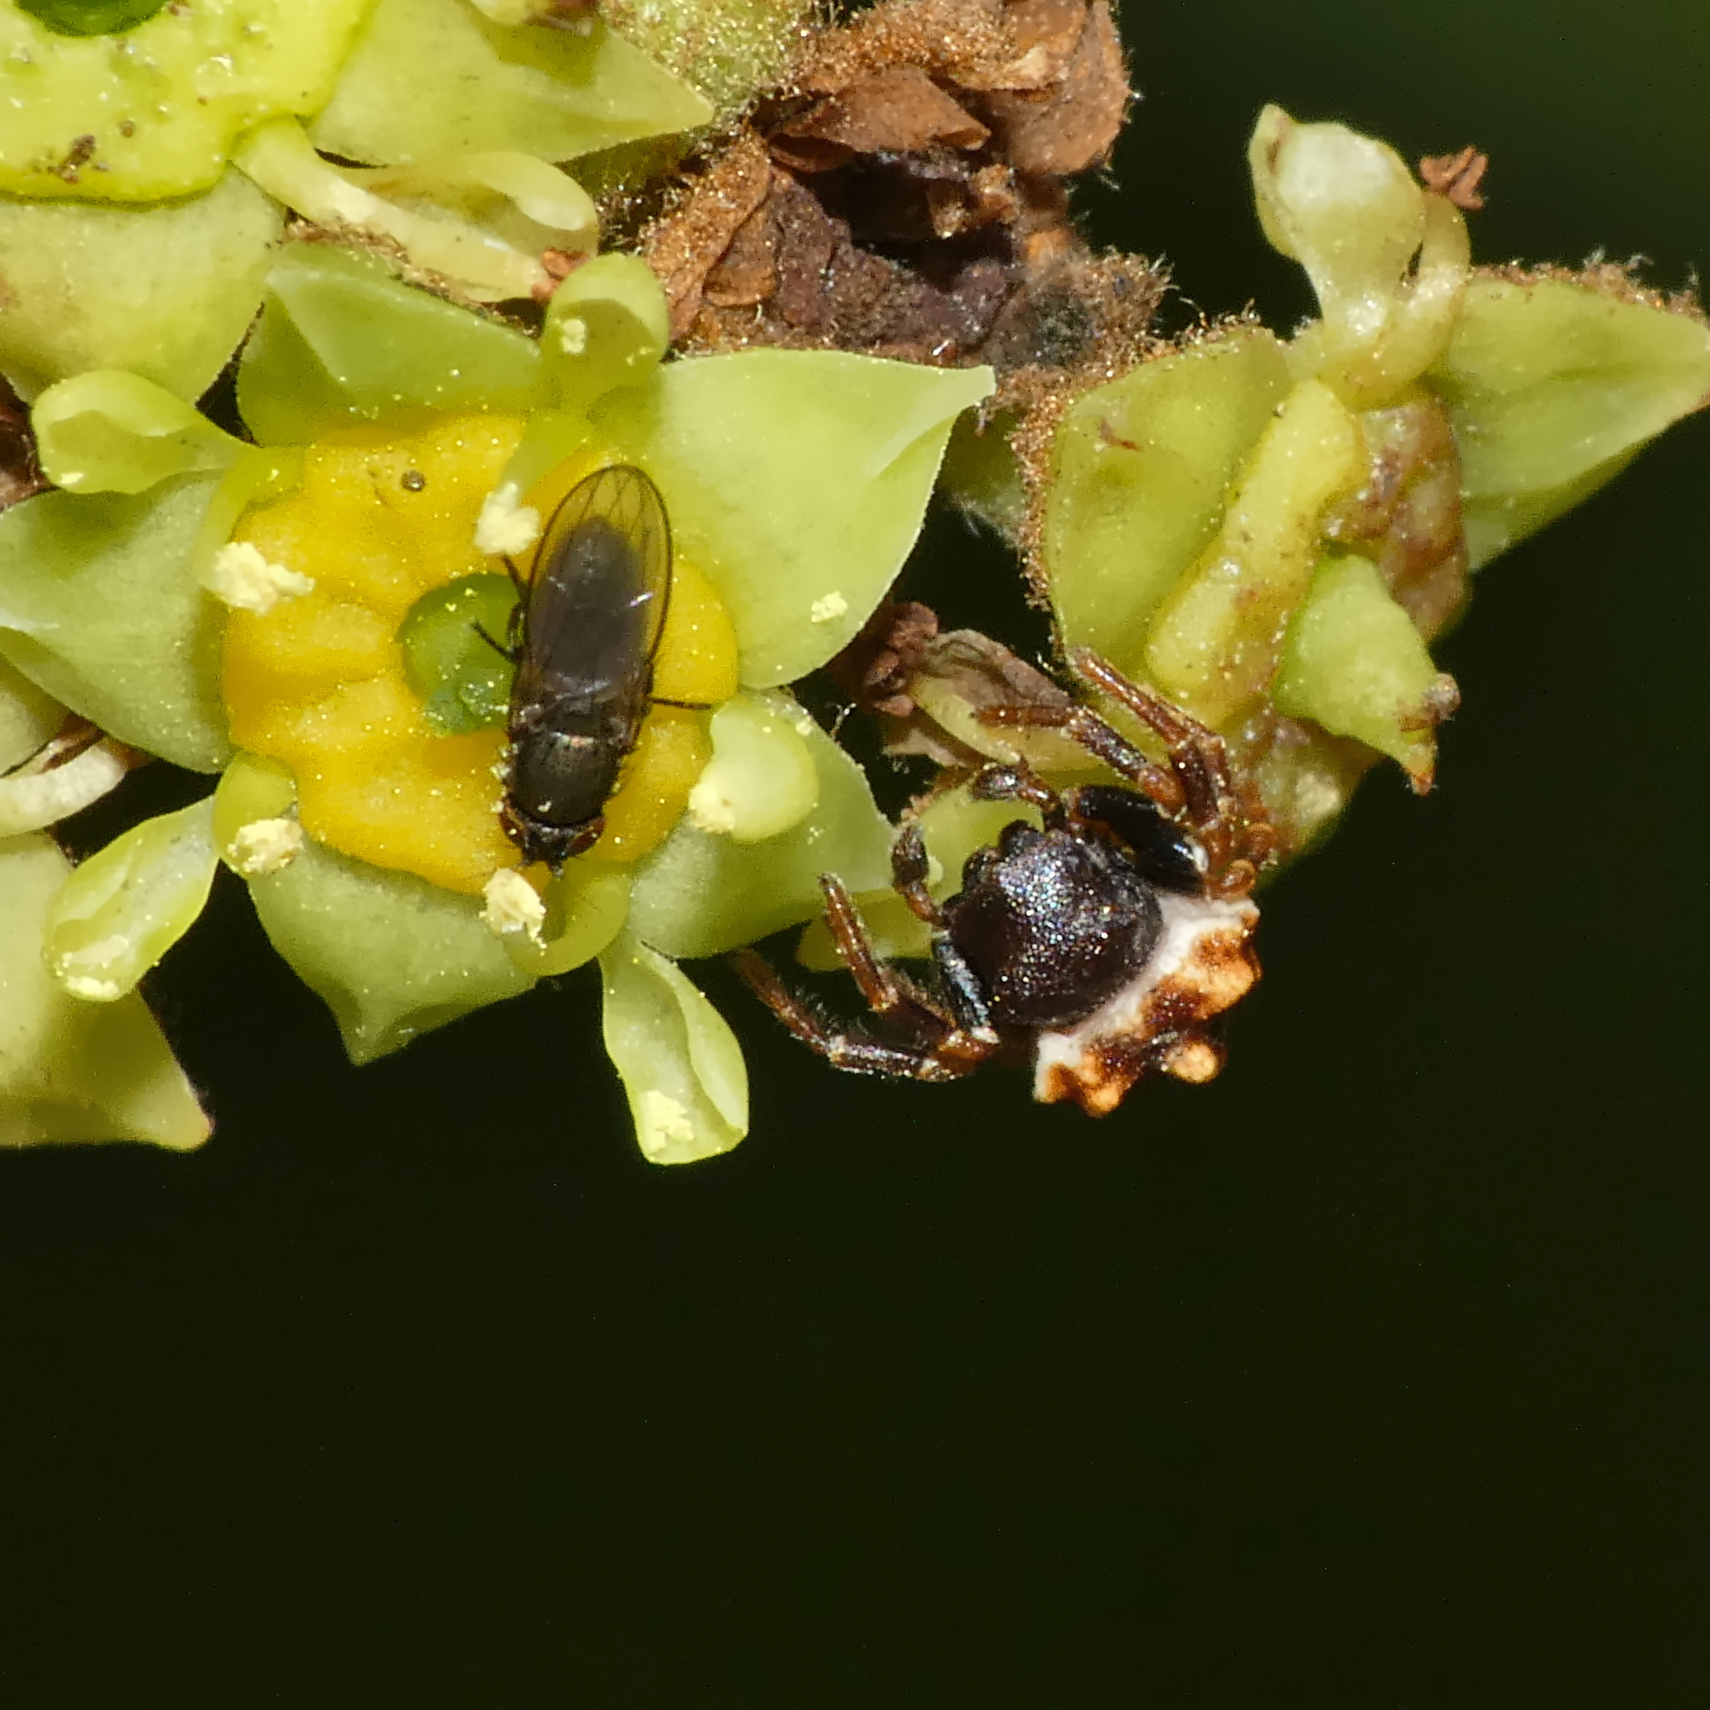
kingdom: Animalia
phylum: Arthropoda
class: Arachnida
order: Araneae
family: Thomisidae
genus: Parabomis
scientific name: Parabomis megae
